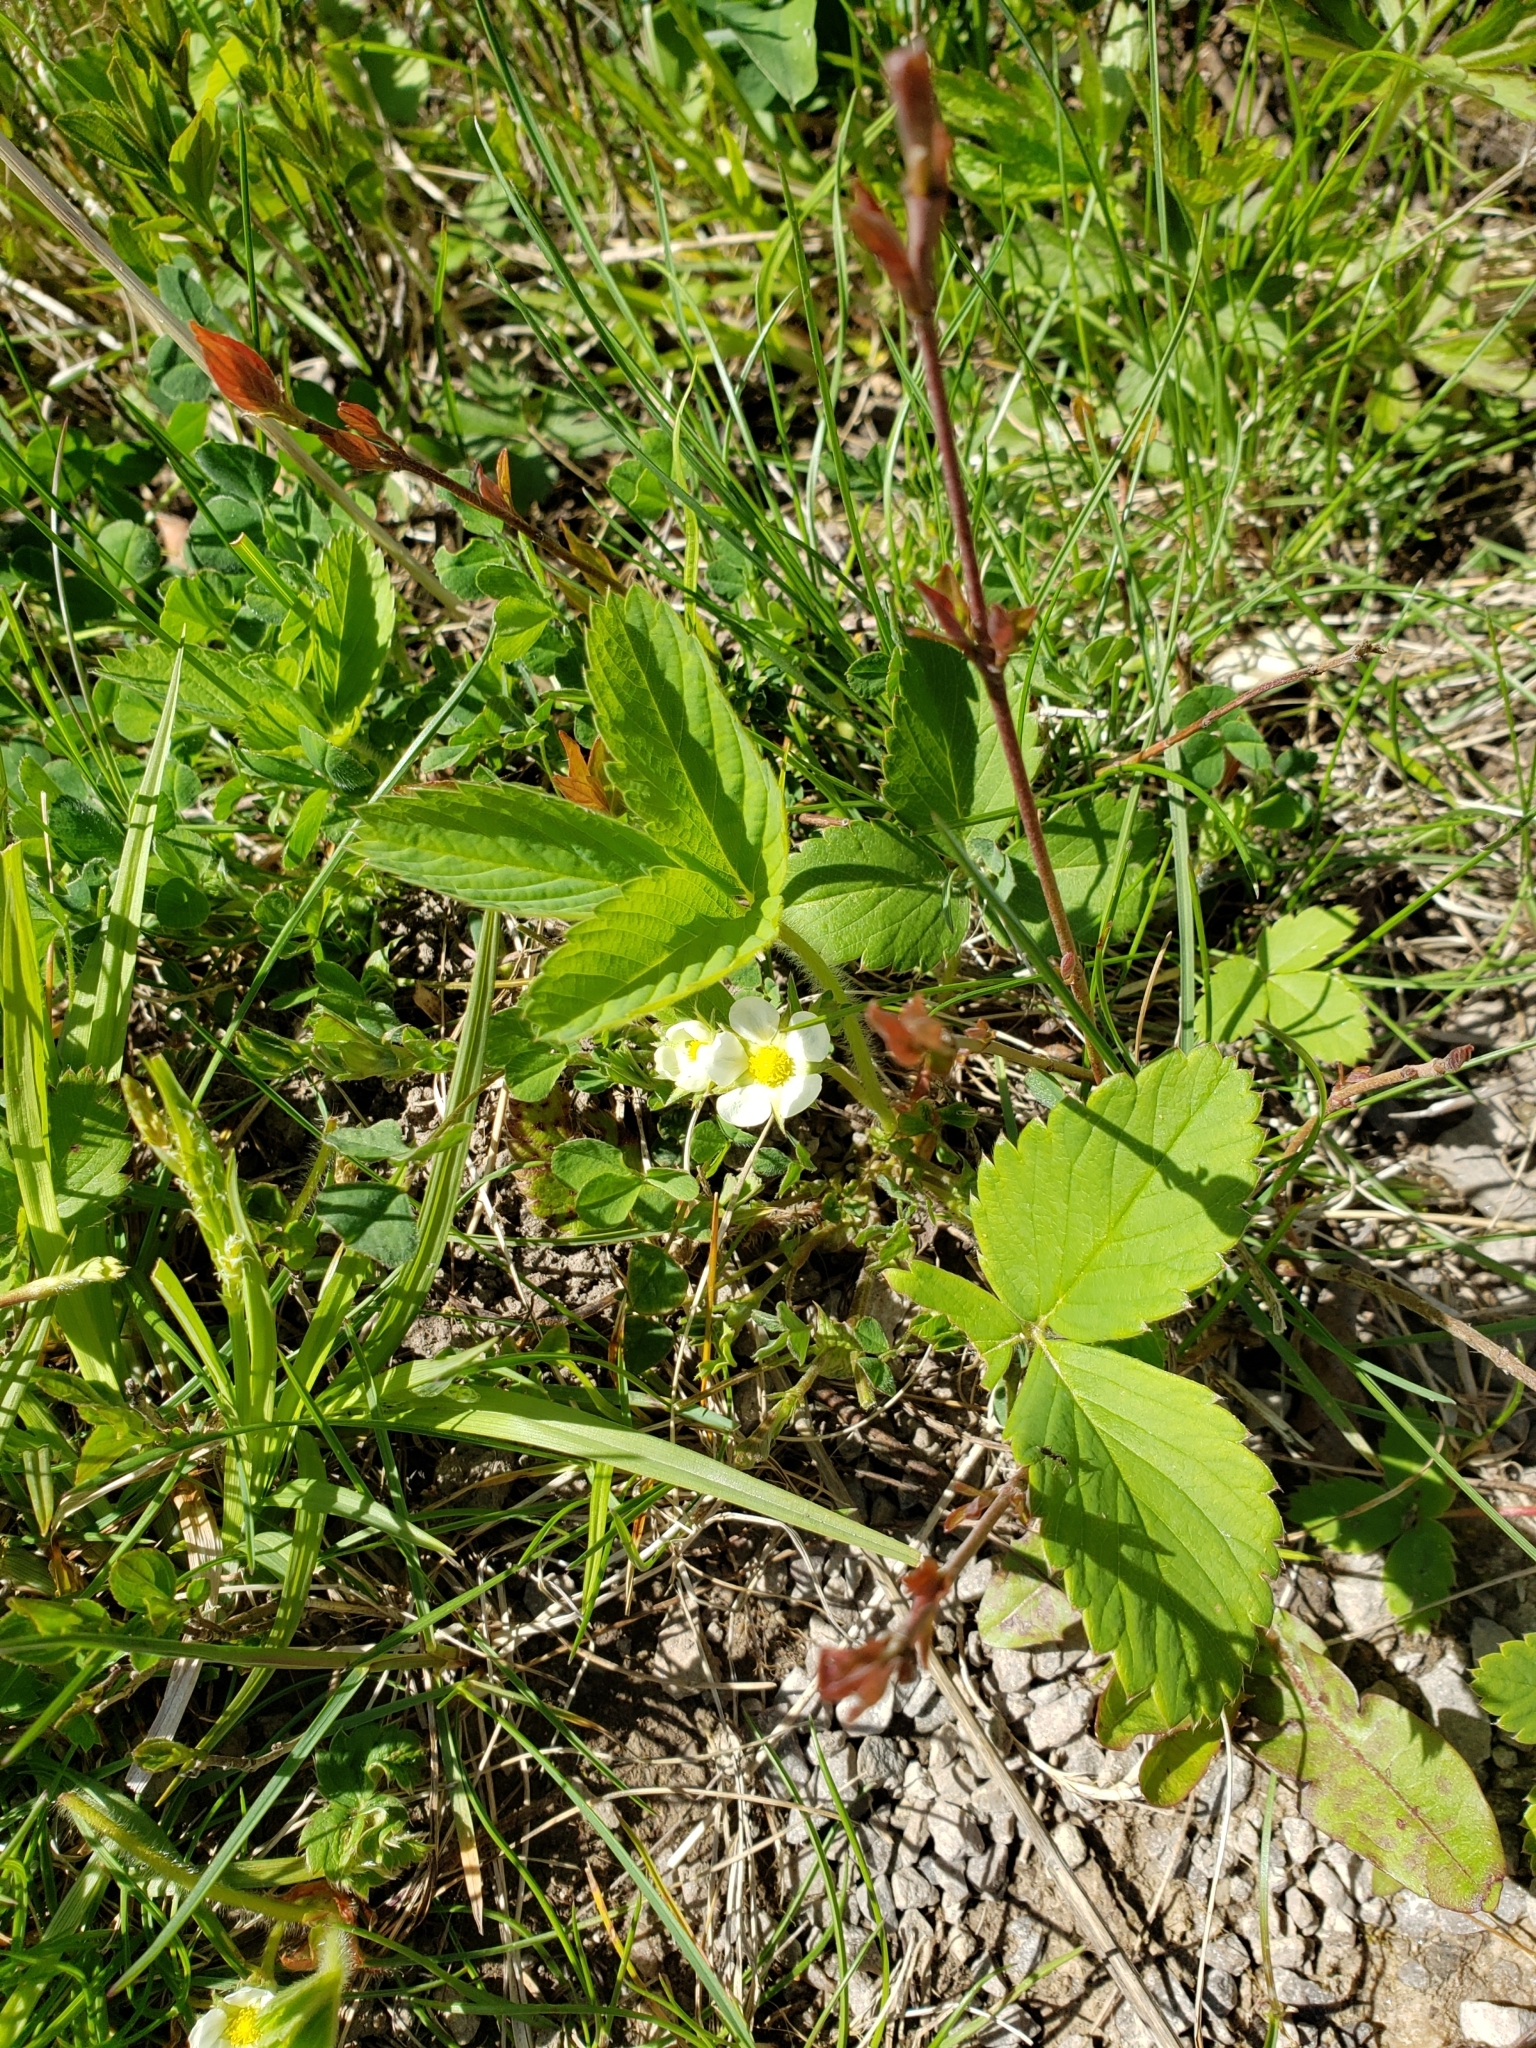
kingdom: Plantae
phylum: Tracheophyta
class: Magnoliopsida
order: Rosales
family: Rosaceae
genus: Fragaria
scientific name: Fragaria virginiana
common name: Thickleaved wild strawberry
